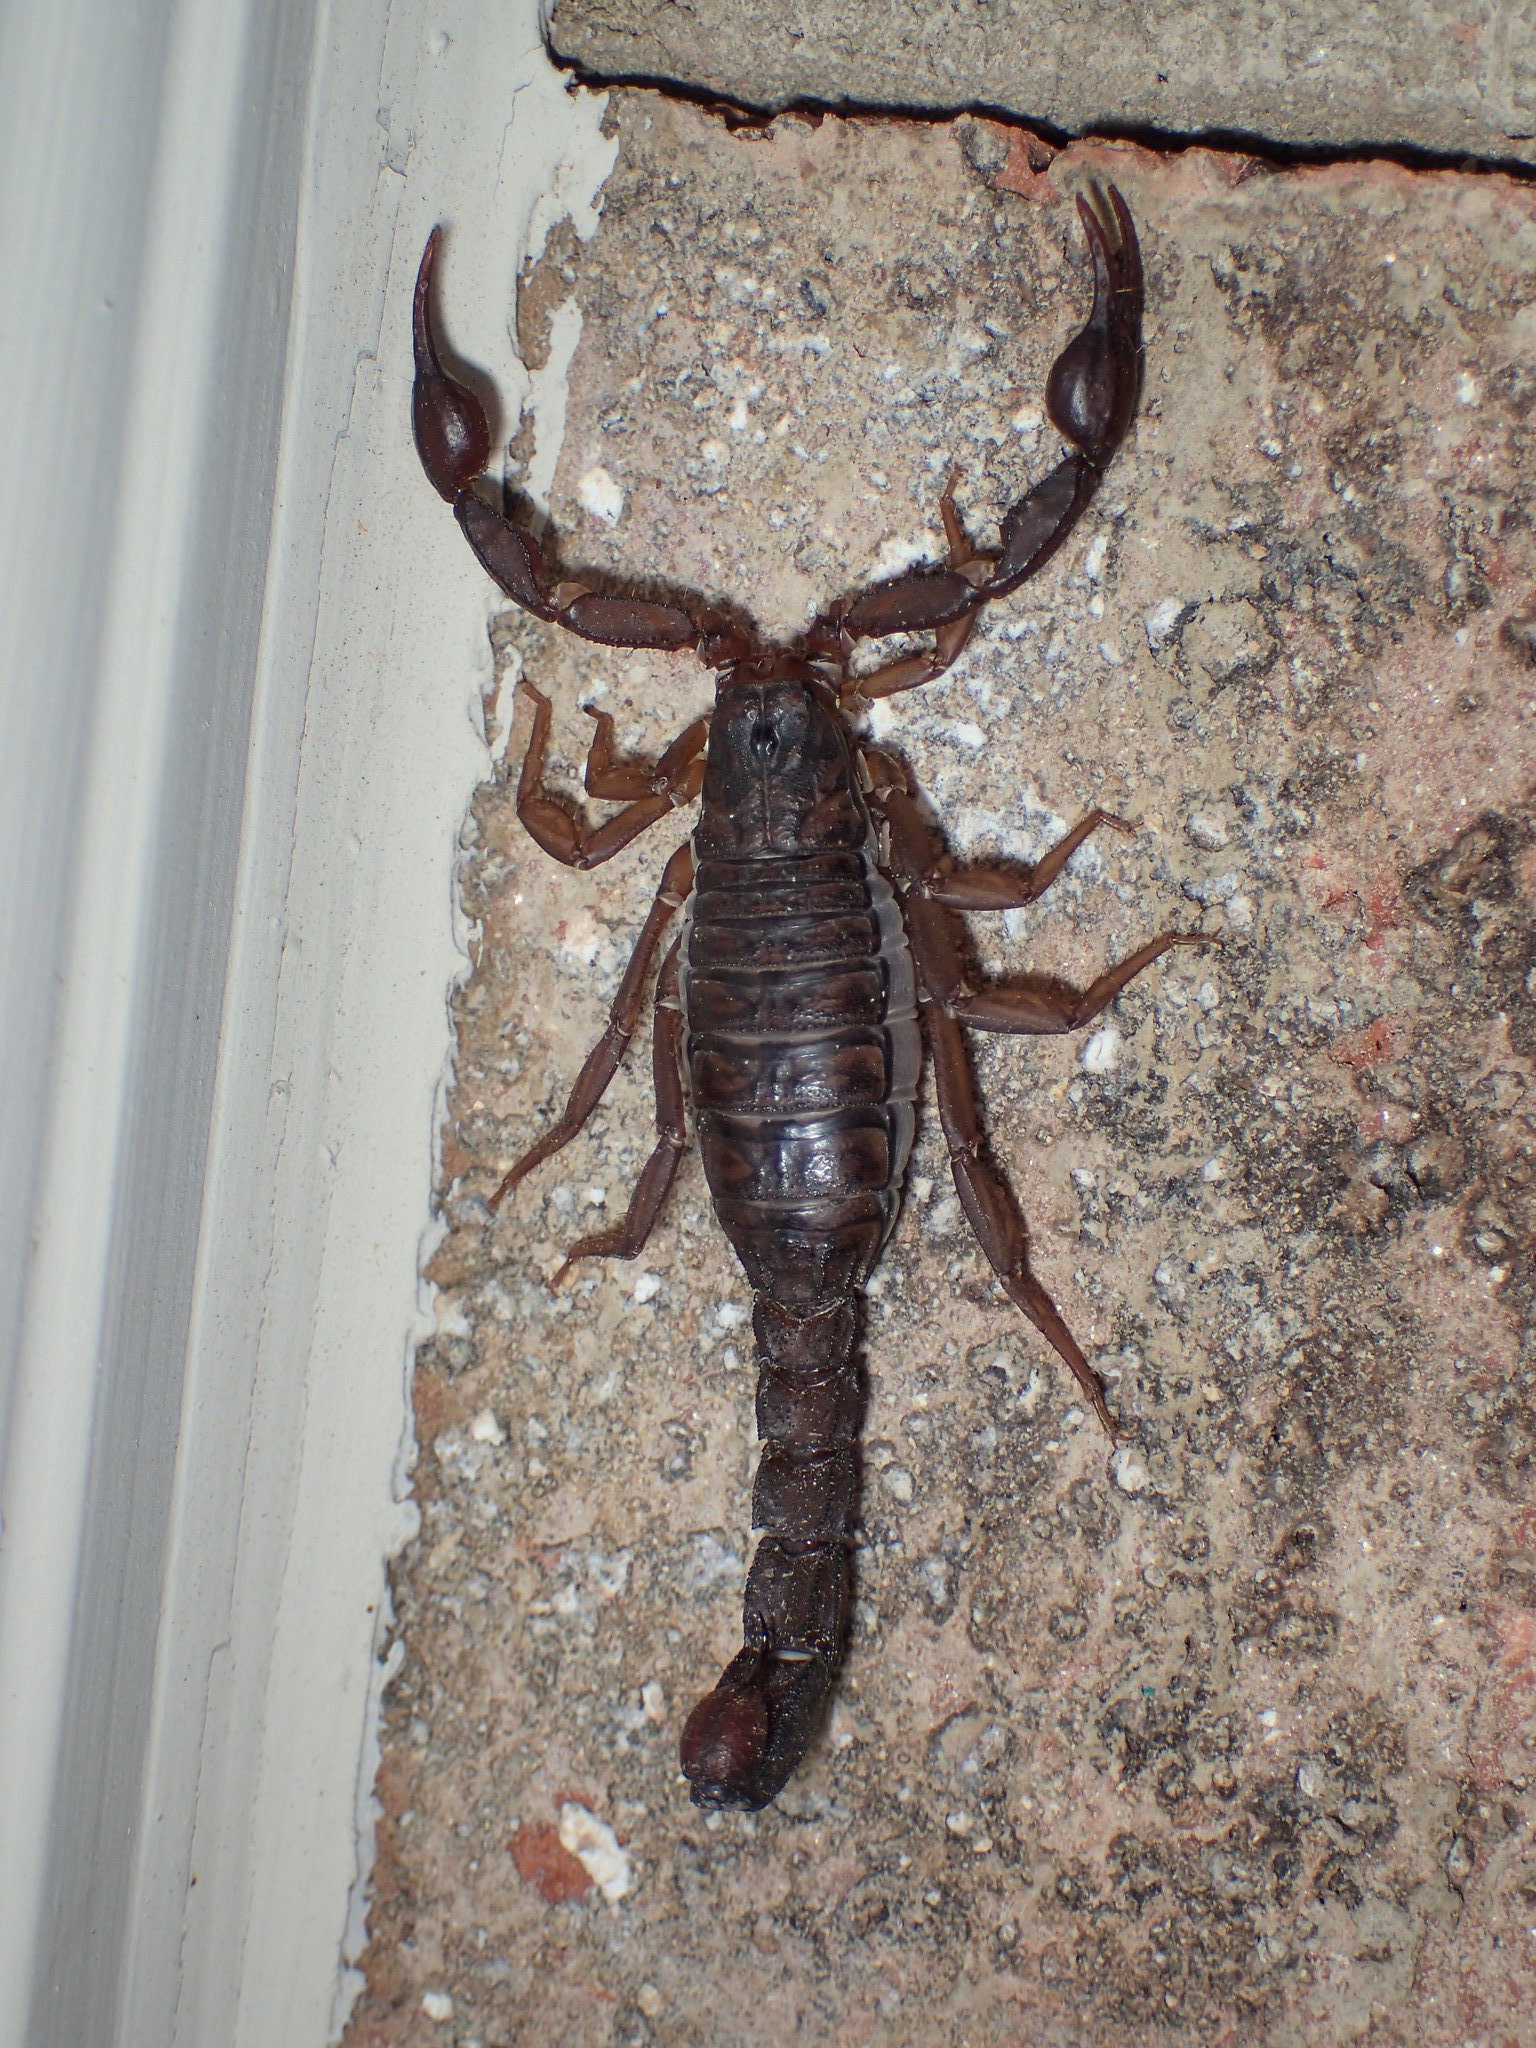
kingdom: Animalia
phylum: Arthropoda
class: Arachnida
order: Scorpiones
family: Vaejovidae
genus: Vaejovis
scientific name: Vaejovis carolinianus
